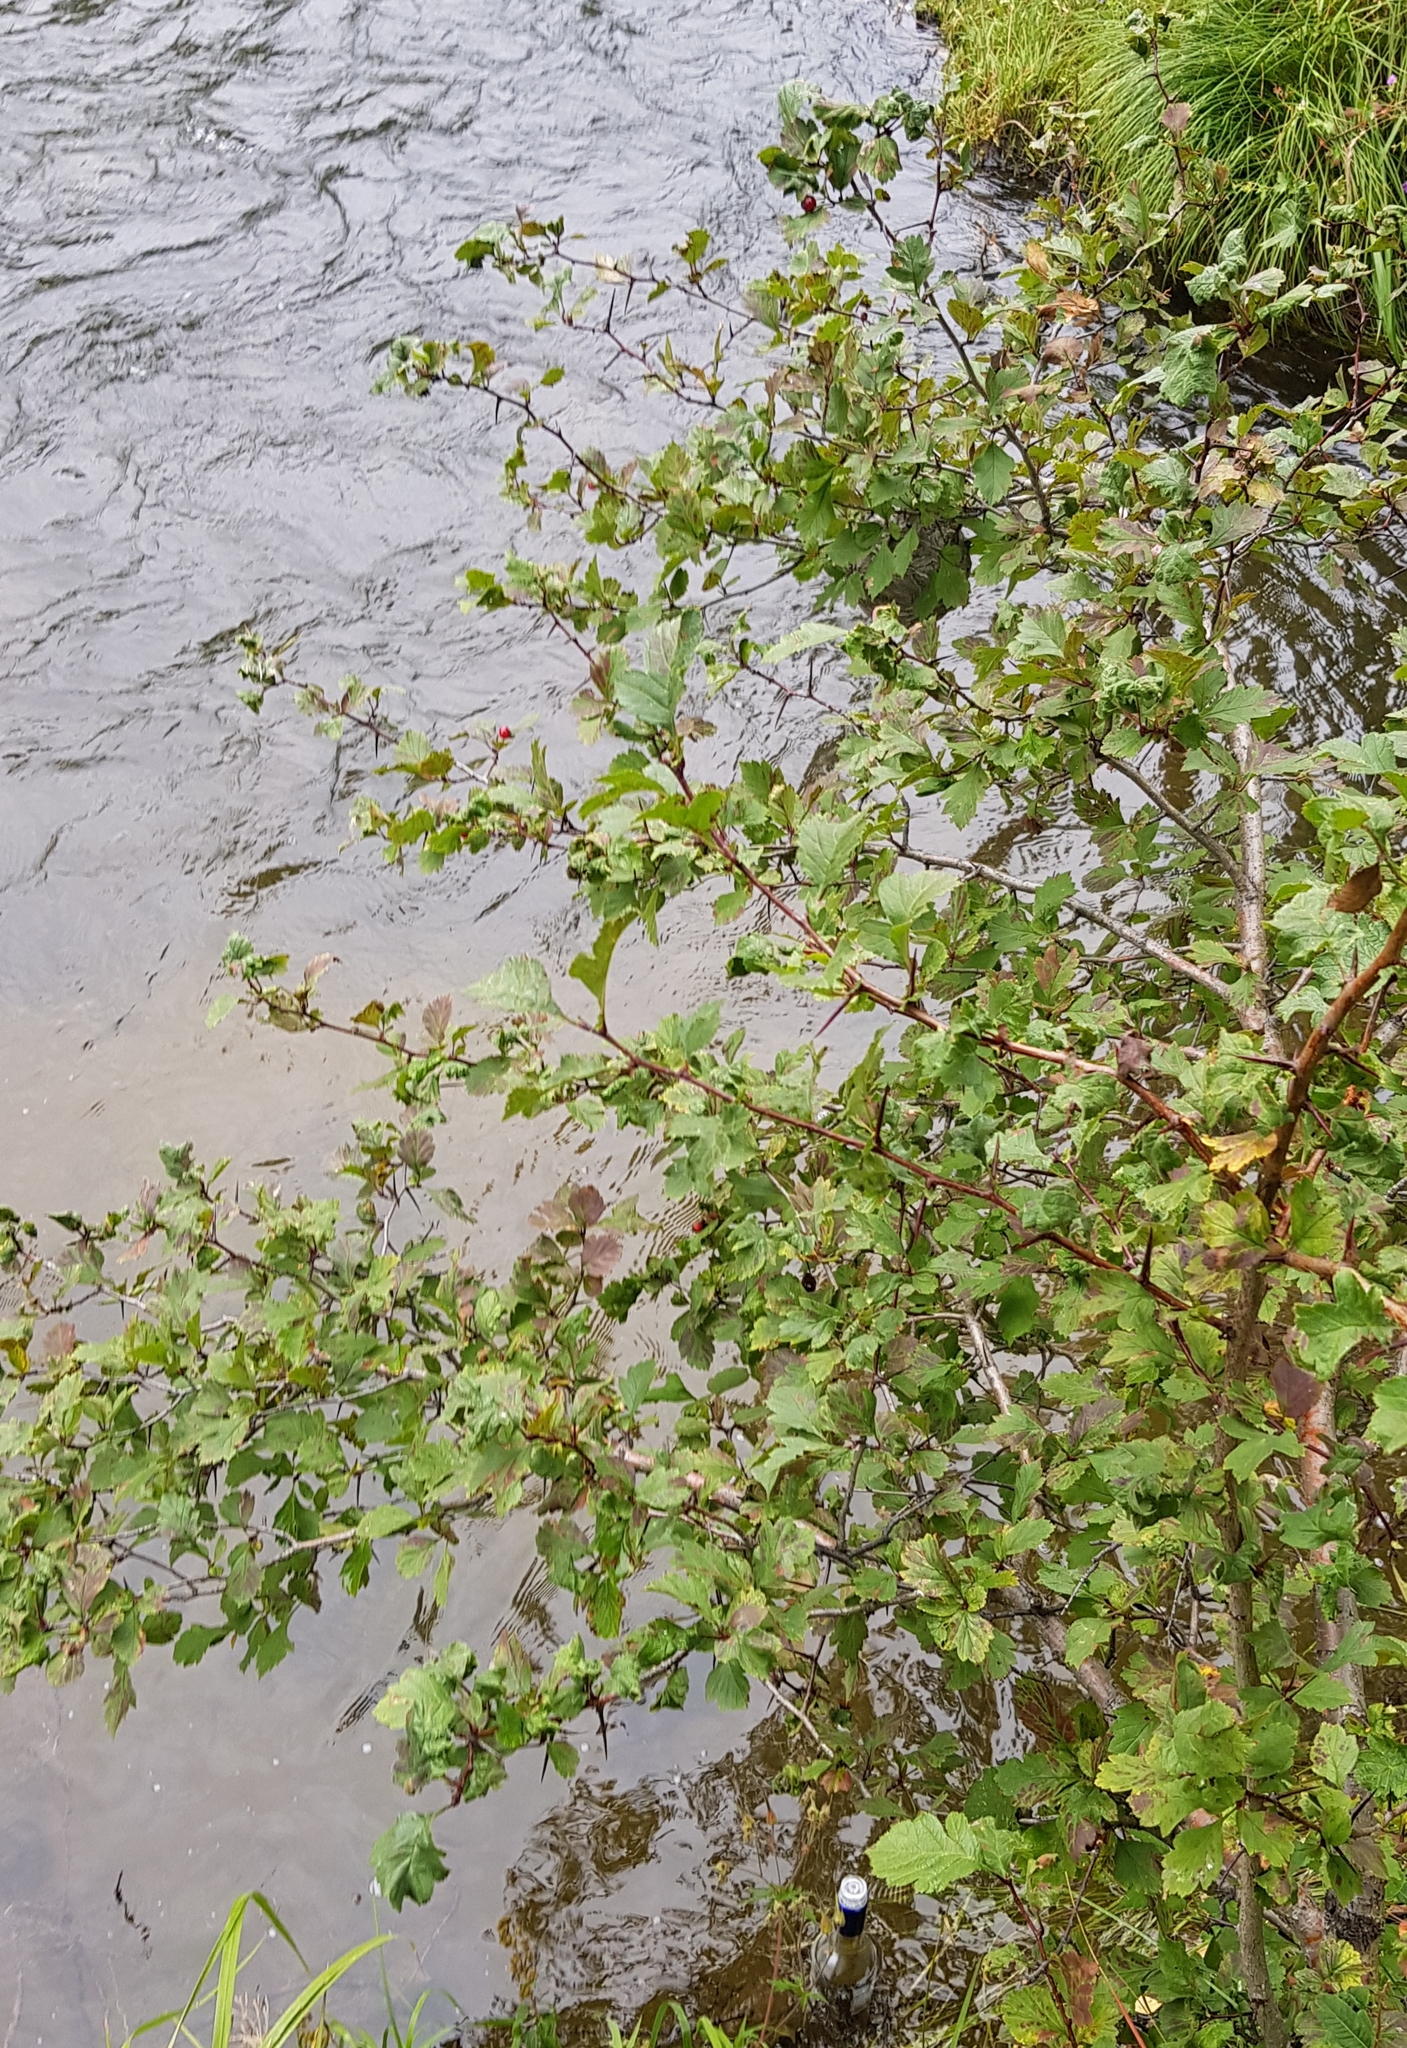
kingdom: Plantae
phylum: Tracheophyta
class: Magnoliopsida
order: Rosales
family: Rosaceae
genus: Crataegus
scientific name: Crataegus sanguinea
